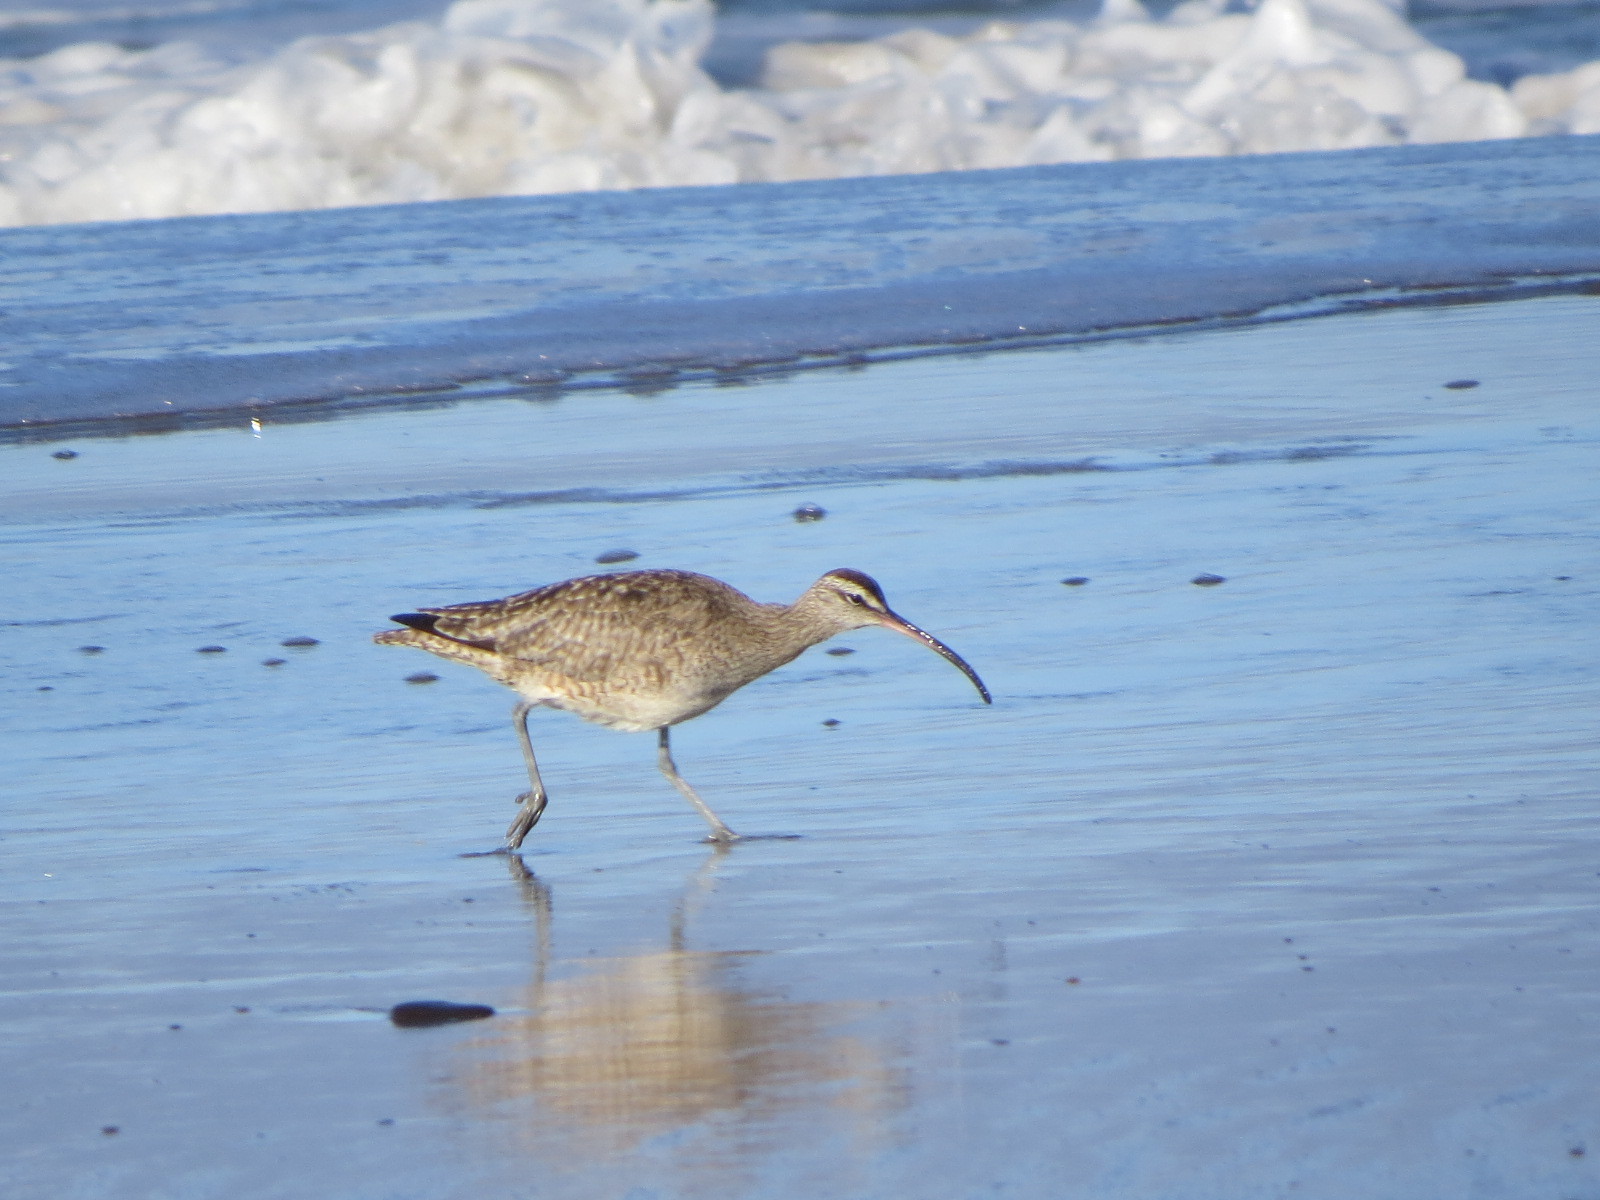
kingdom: Animalia
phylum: Chordata
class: Aves
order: Charadriiformes
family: Scolopacidae
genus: Numenius
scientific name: Numenius phaeopus
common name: Whimbrel
